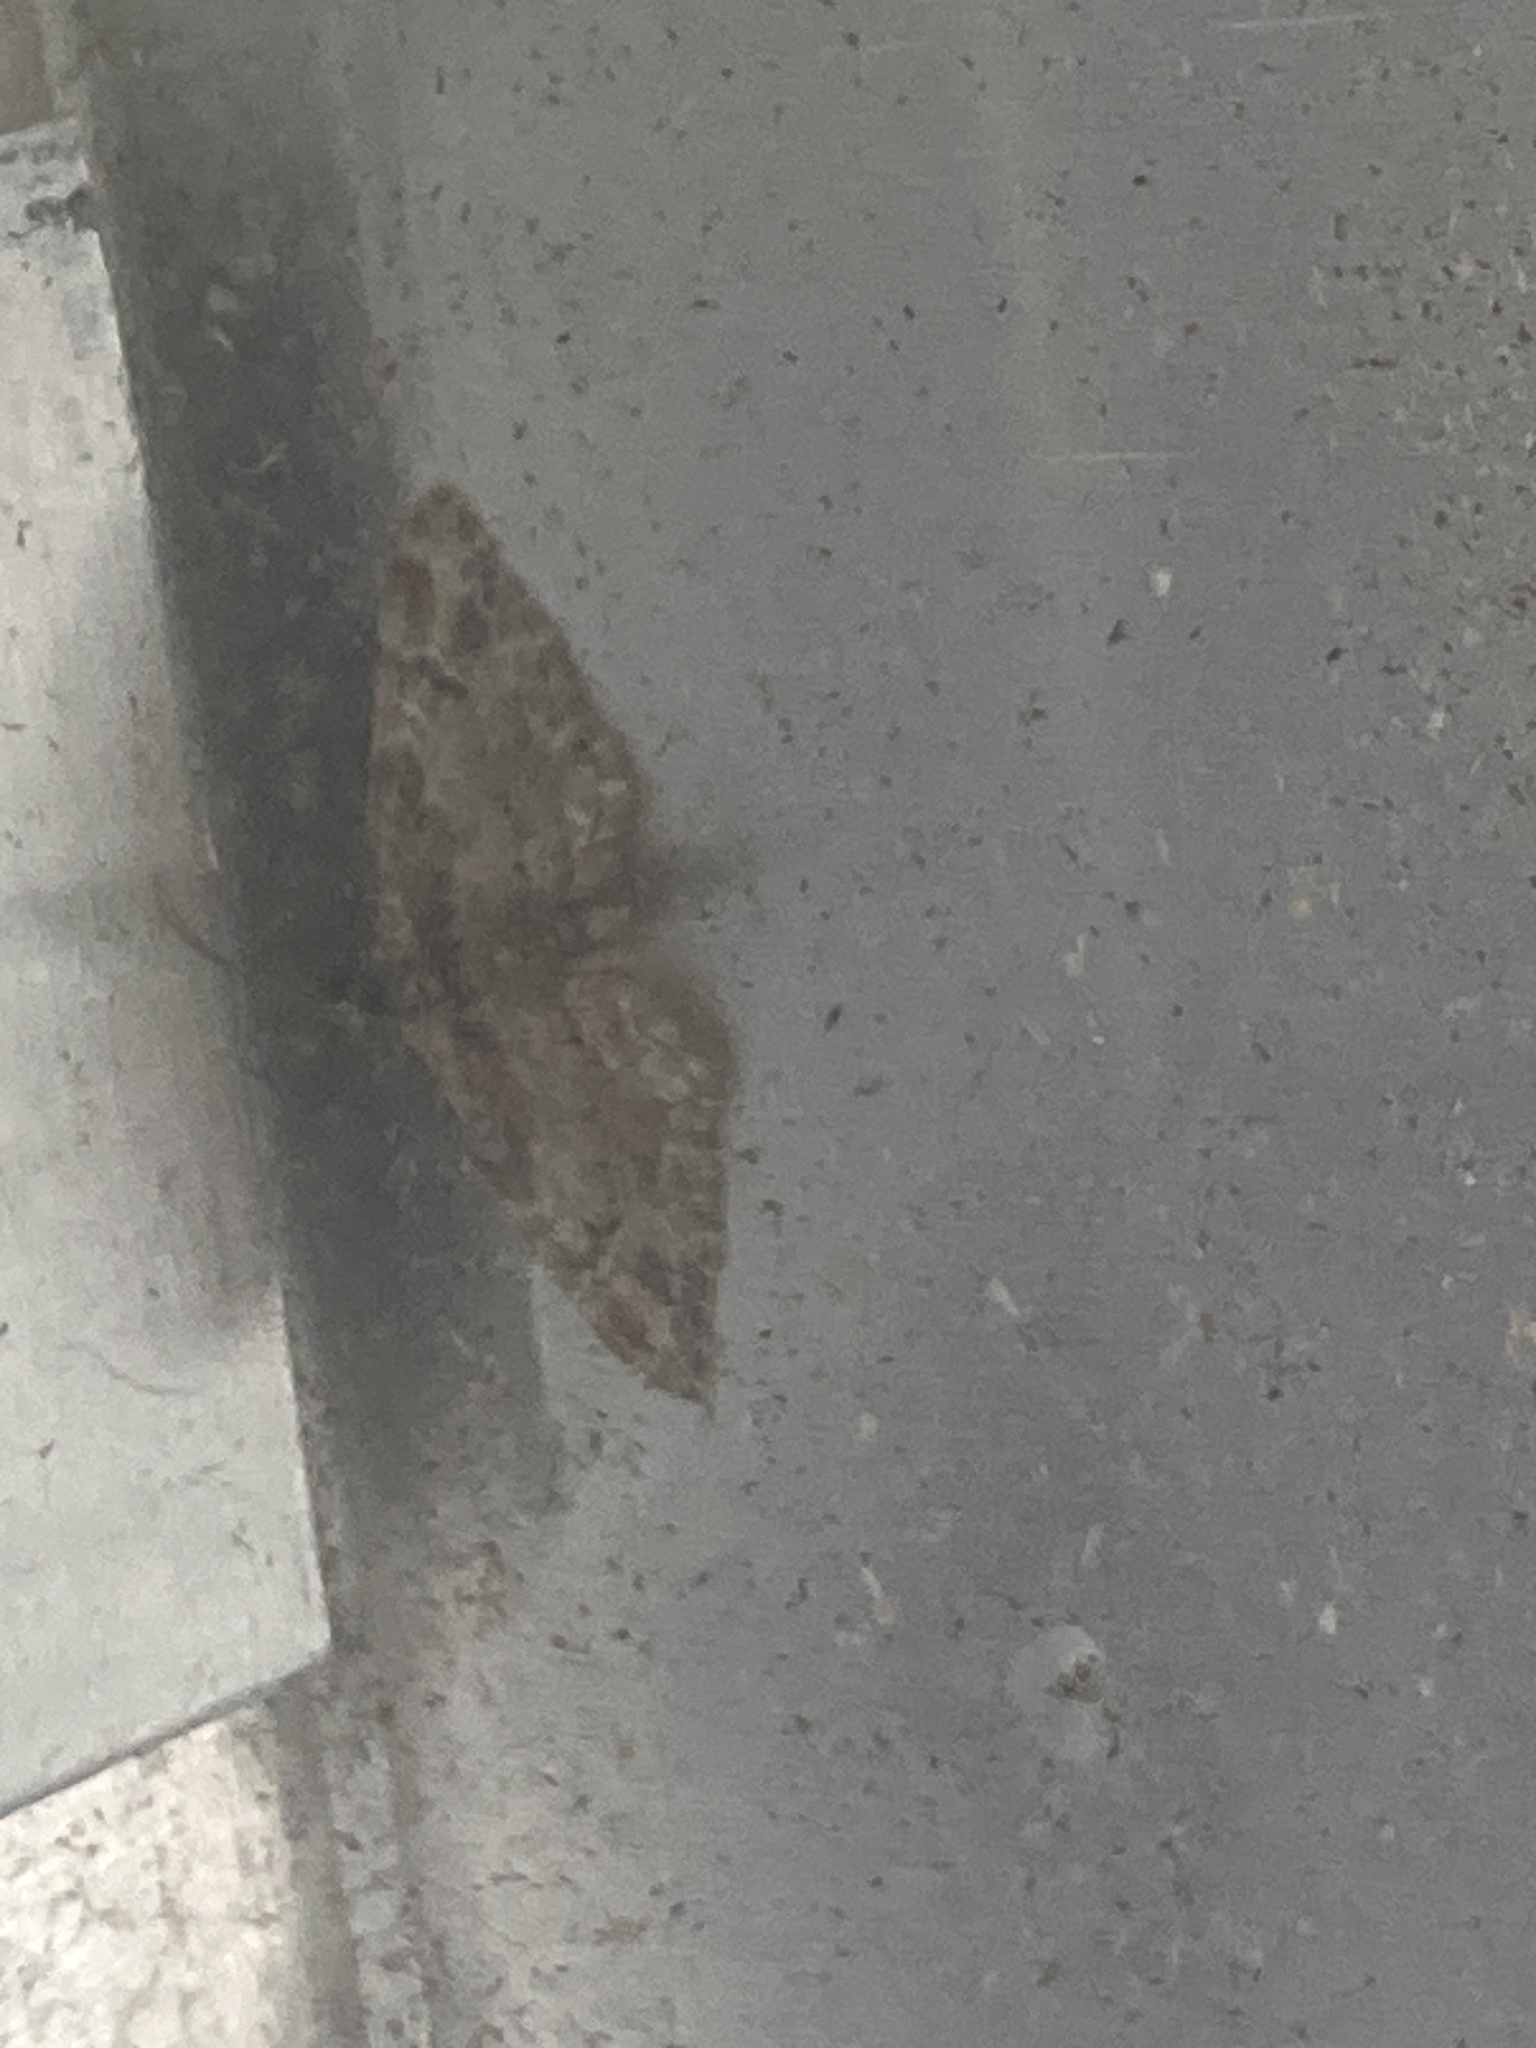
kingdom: Animalia
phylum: Arthropoda
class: Insecta
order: Lepidoptera
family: Geometridae
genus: Gymnoscelis
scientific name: Gymnoscelis rufifasciata
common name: Double-striped pug
